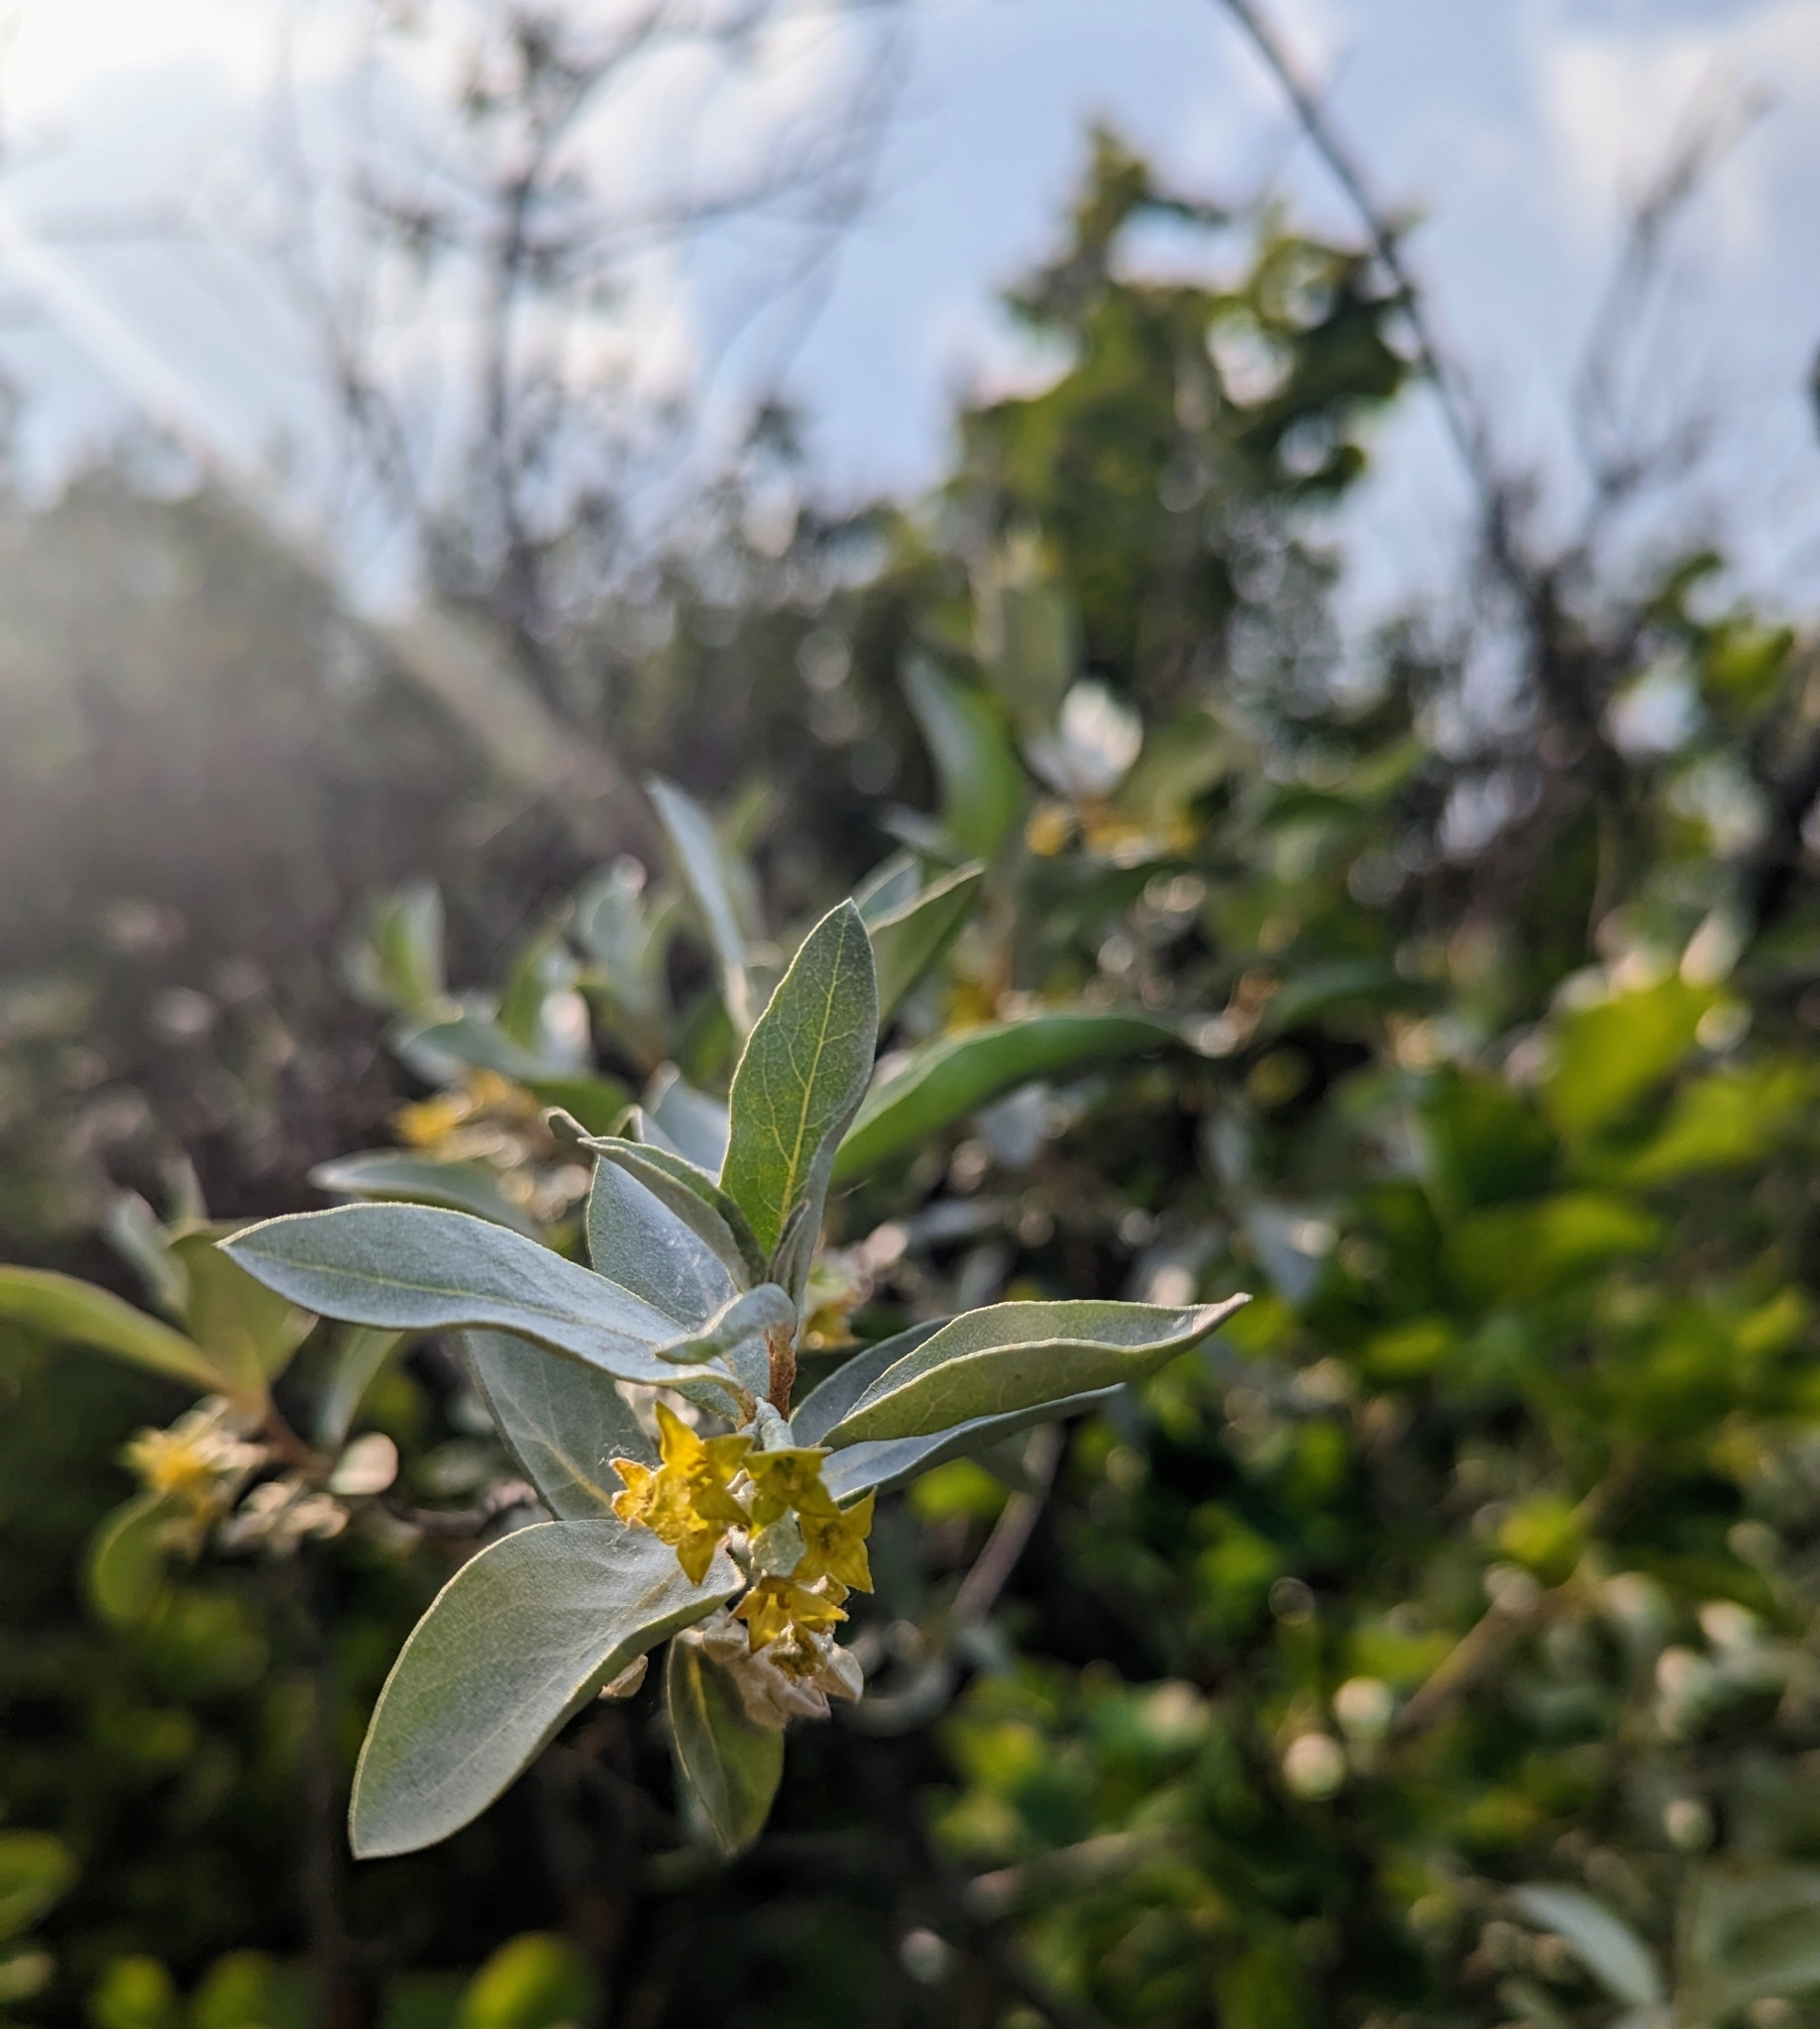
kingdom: Plantae
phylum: Tracheophyta
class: Magnoliopsida
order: Rosales
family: Elaeagnaceae
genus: Elaeagnus
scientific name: Elaeagnus commutata
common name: Silverberry
